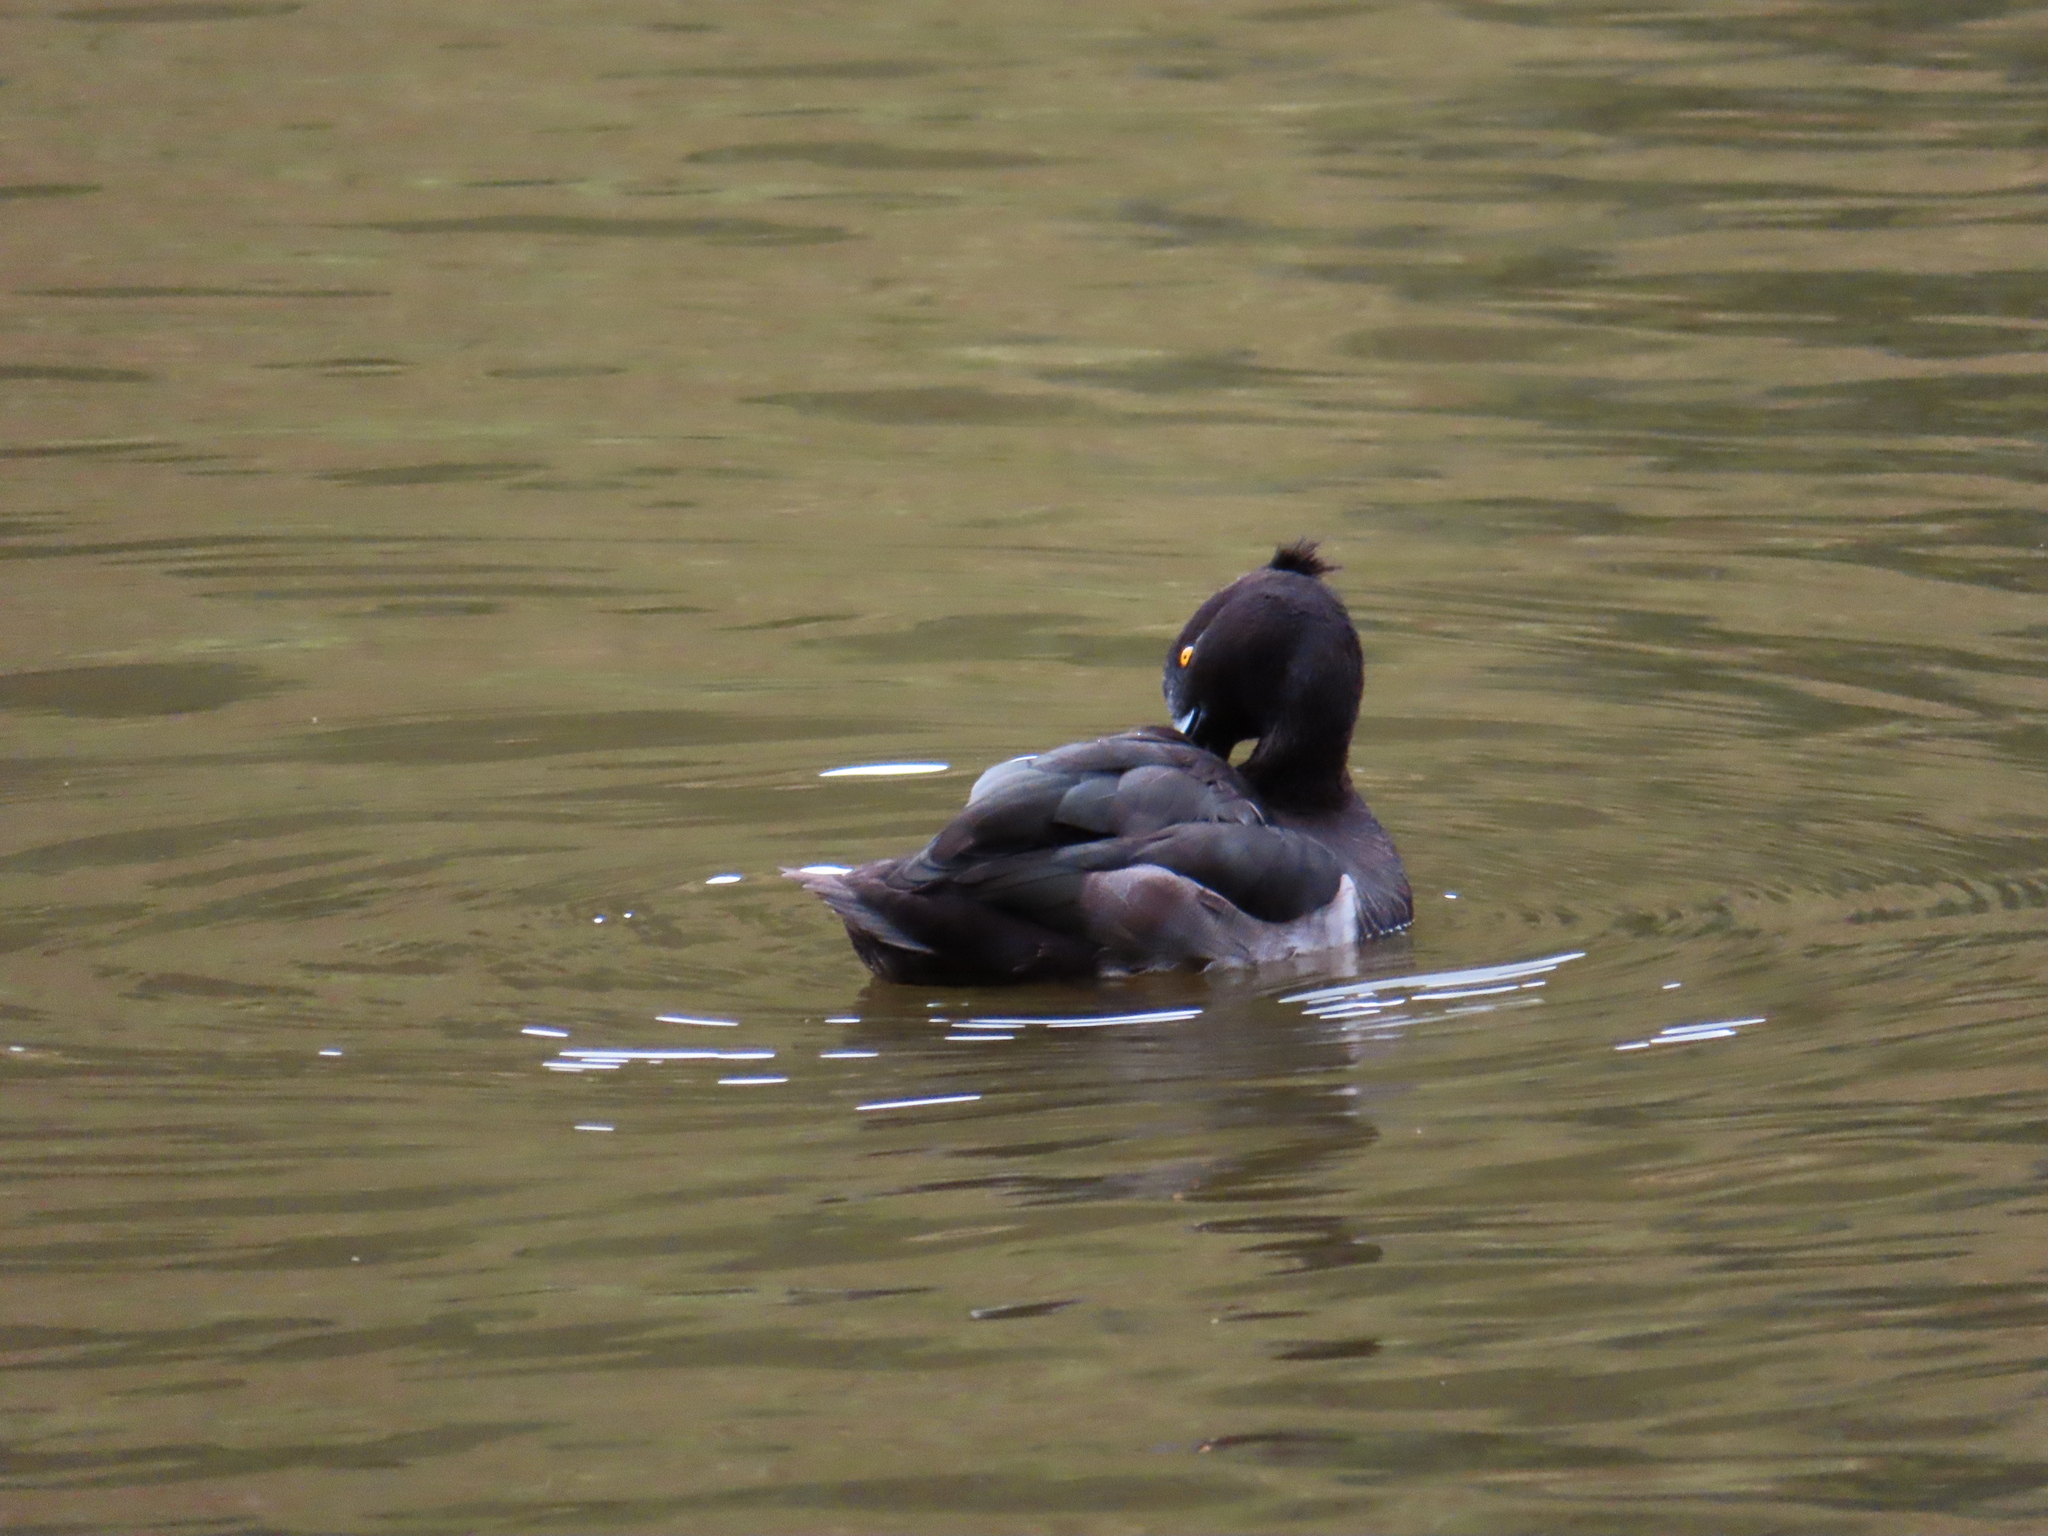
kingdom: Animalia
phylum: Chordata
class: Aves
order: Anseriformes
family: Anatidae
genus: Aythya
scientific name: Aythya fuligula
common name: Tufted duck
